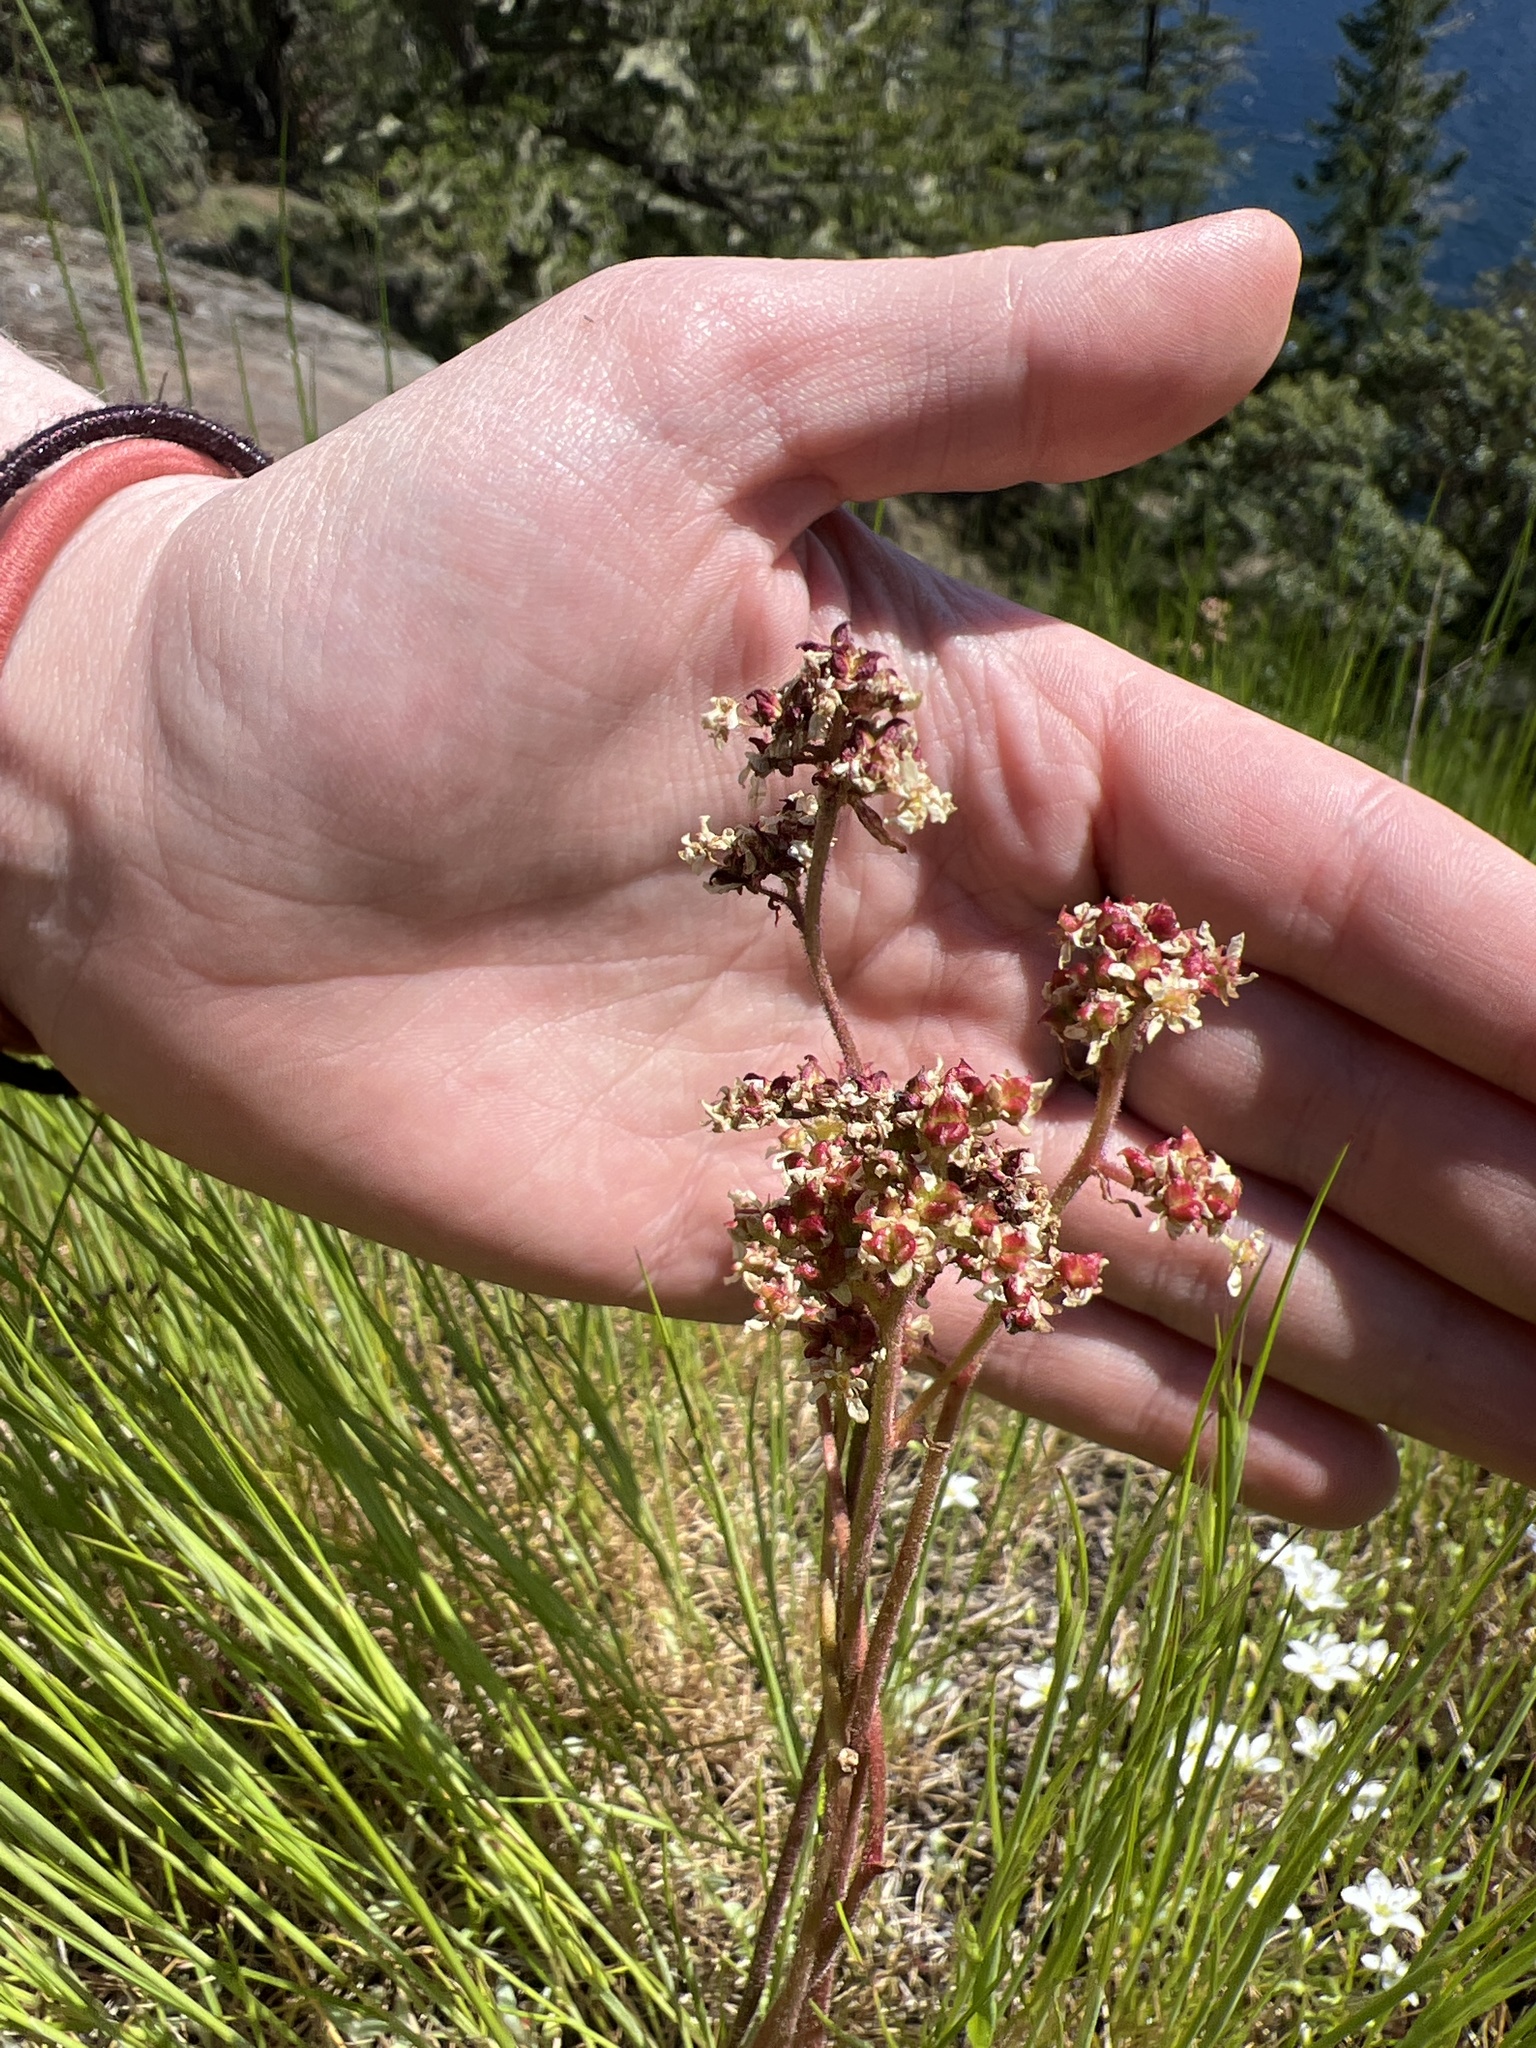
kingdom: Plantae
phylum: Tracheophyta
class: Magnoliopsida
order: Saxifragales
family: Saxifragaceae
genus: Micranthes
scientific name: Micranthes integrifolia
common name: Wholeleaf saxifrage
